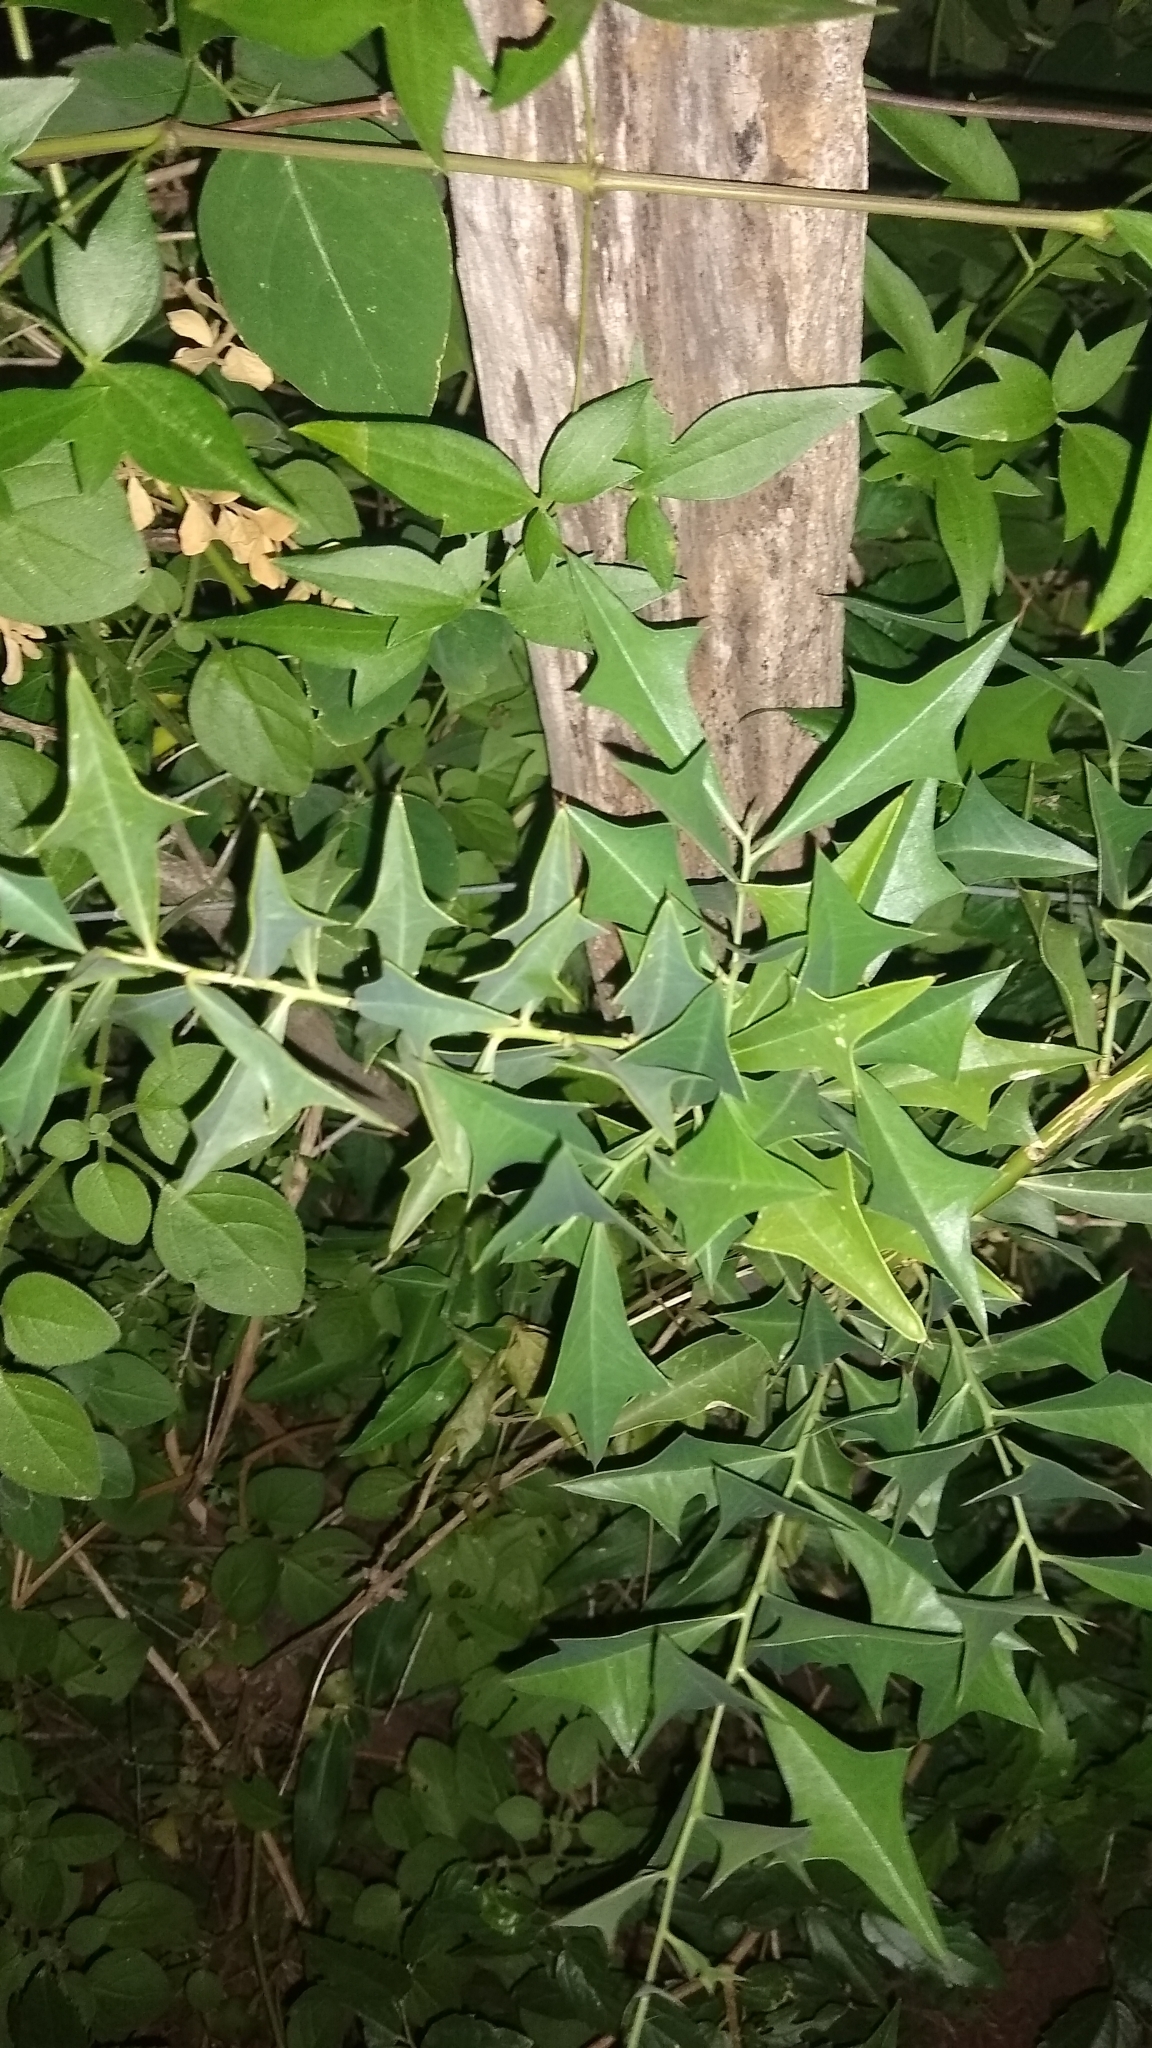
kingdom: Plantae
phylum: Tracheophyta
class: Magnoliopsida
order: Santalales
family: Cervantesiaceae
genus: Jodina
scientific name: Jodina rhombifolia
